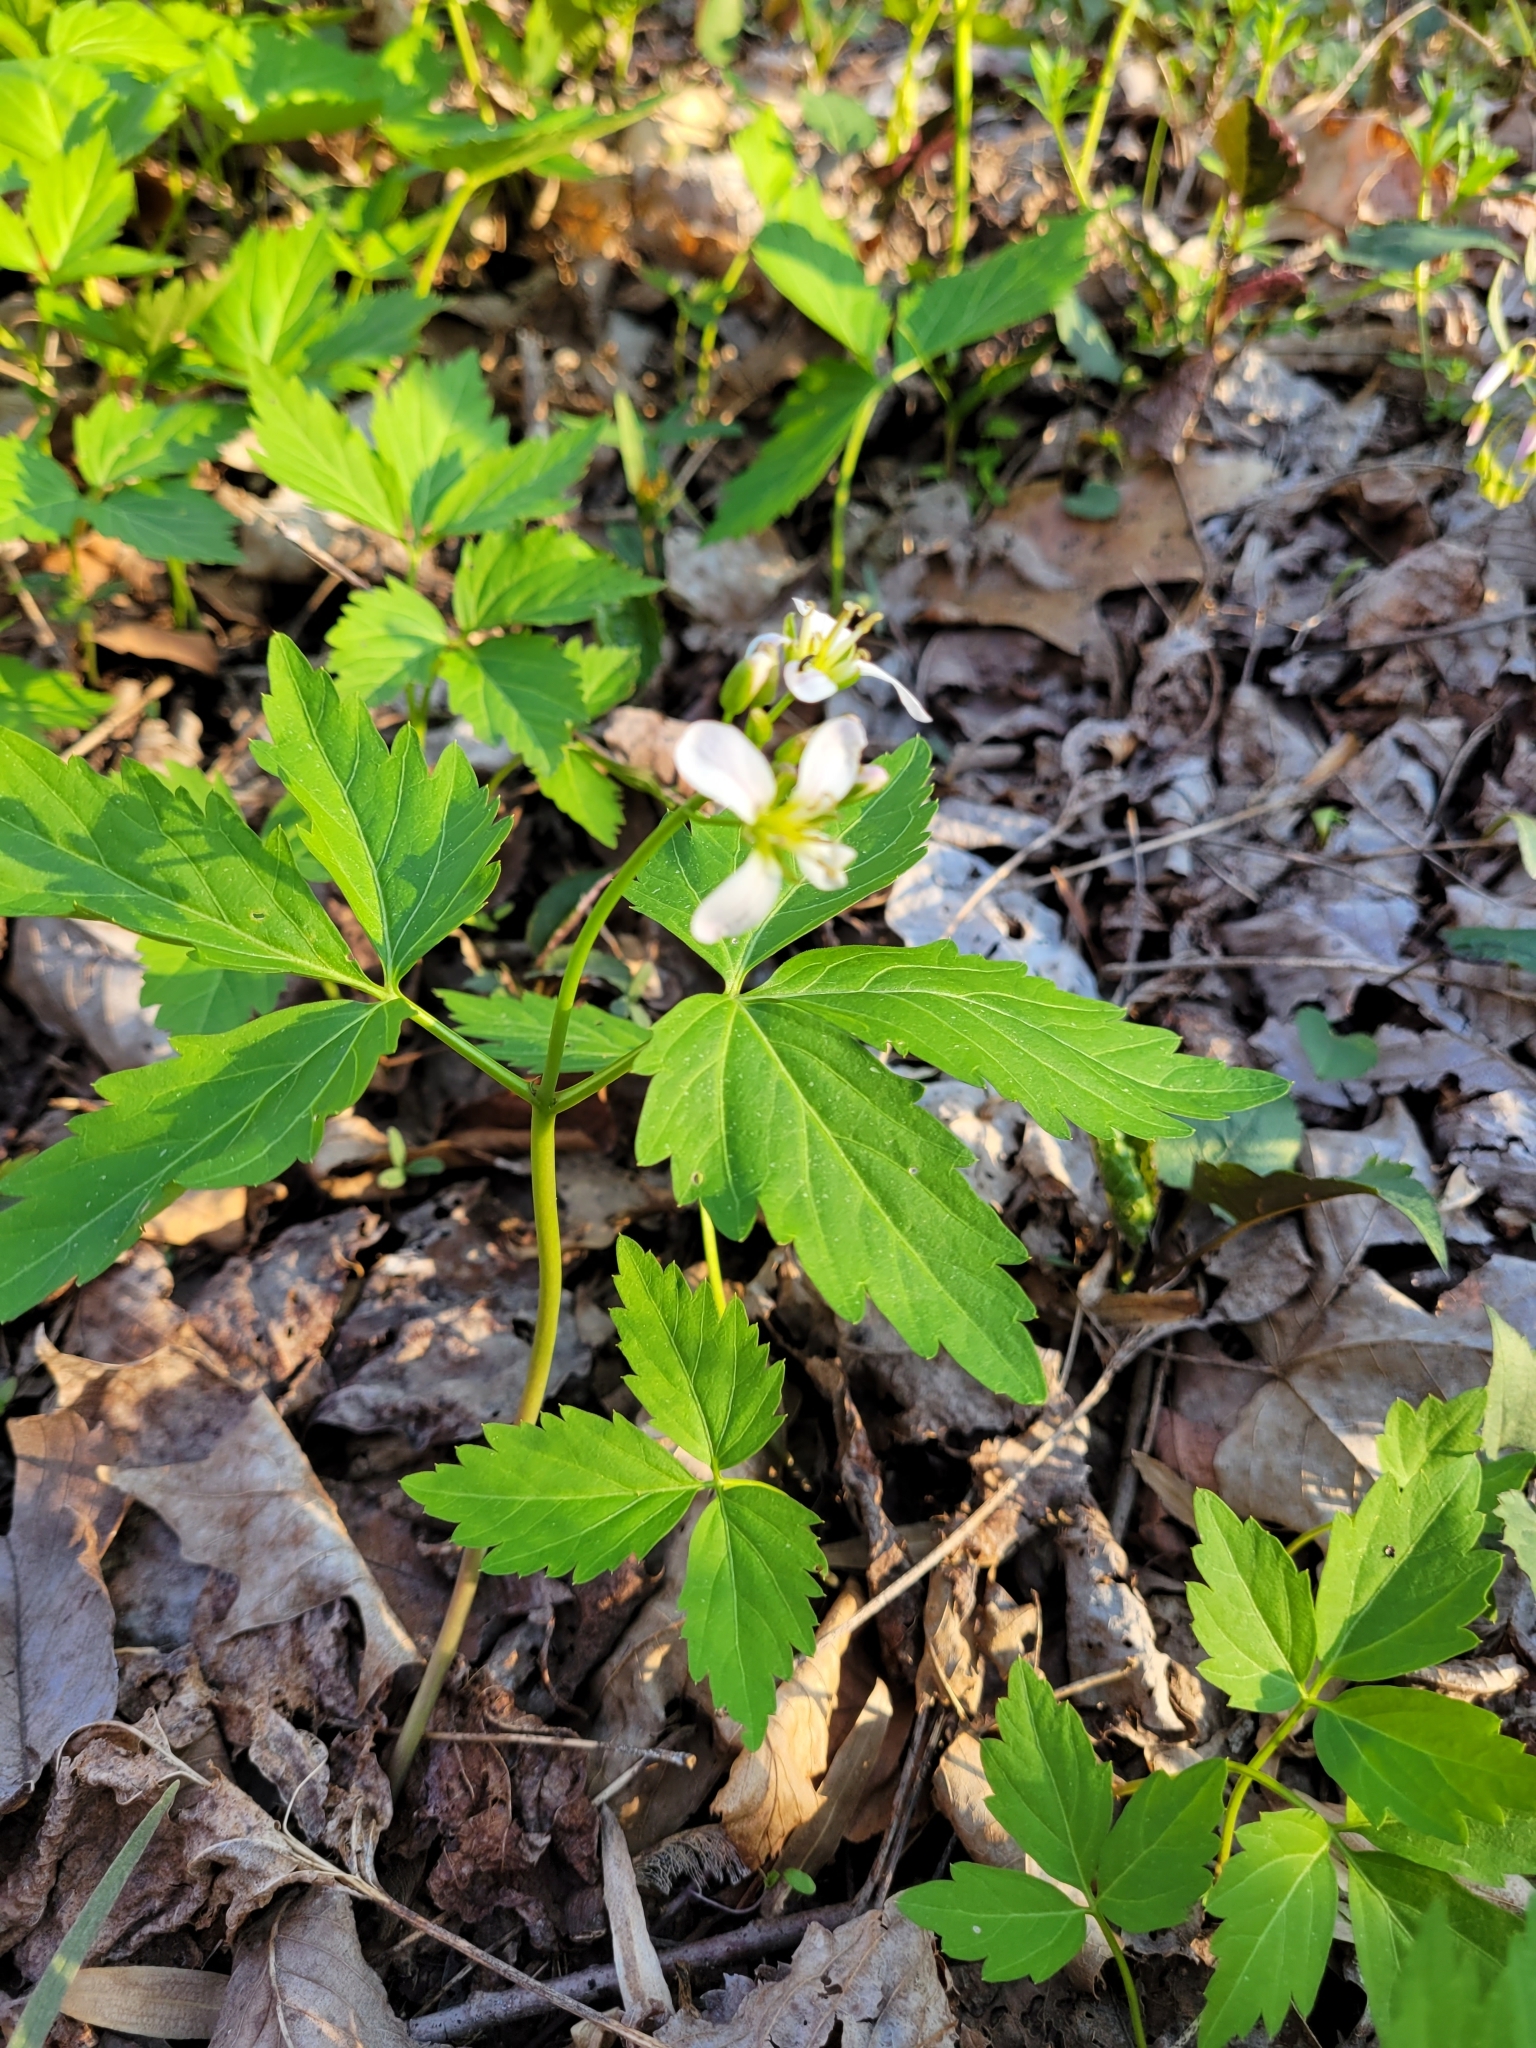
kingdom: Plantae
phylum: Tracheophyta
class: Magnoliopsida
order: Brassicales
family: Brassicaceae
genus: Cardamine
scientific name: Cardamine diphylla
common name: Broad-leaved toothwort
